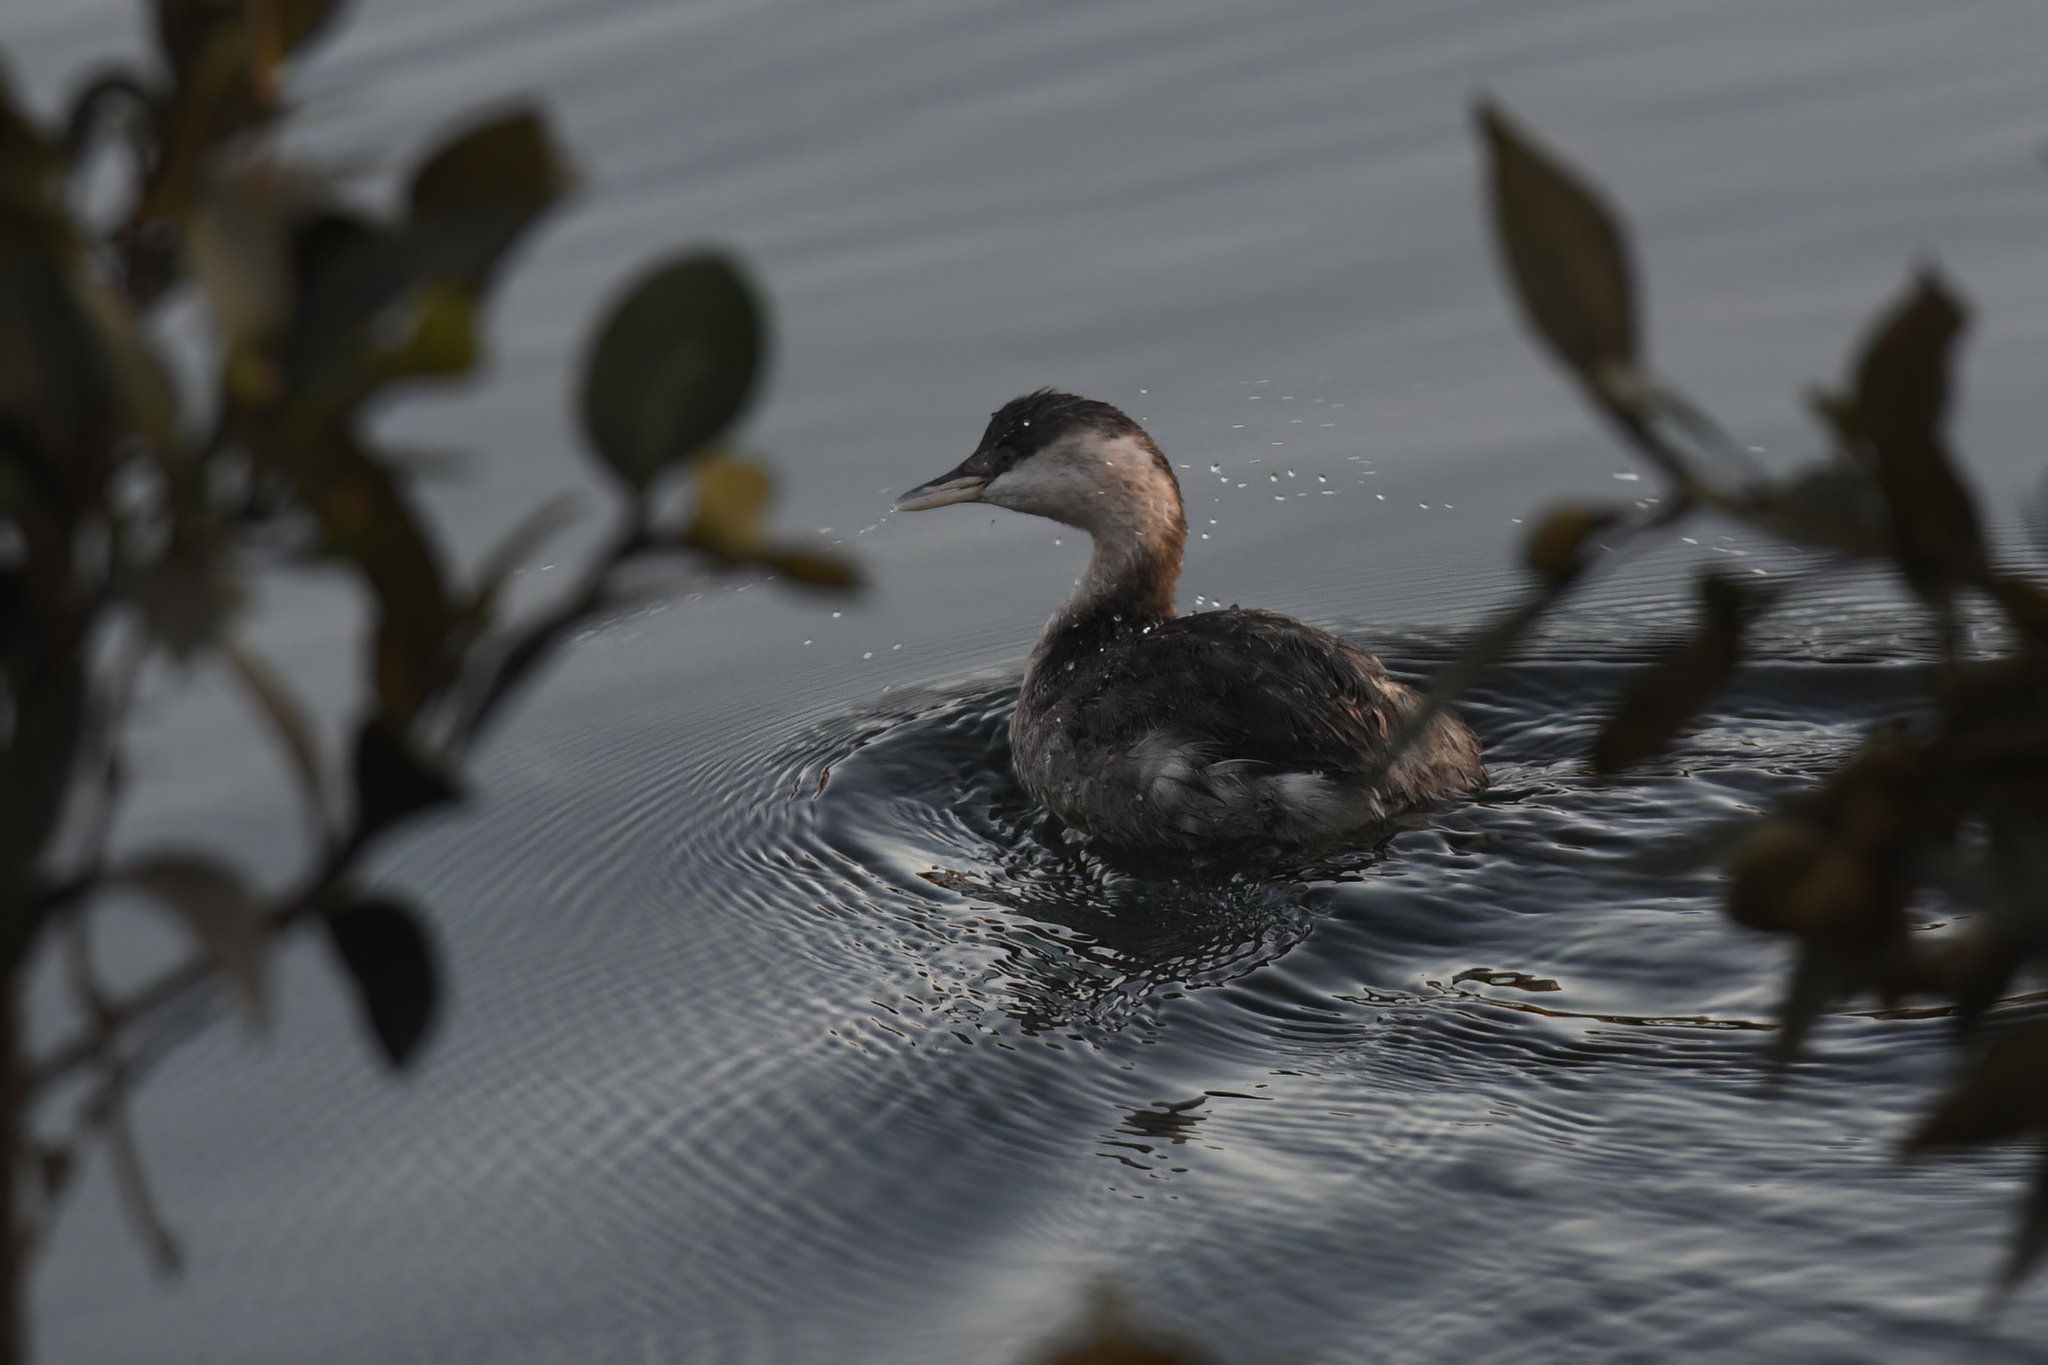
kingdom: Animalia
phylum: Chordata
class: Aves
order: Podicipediformes
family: Podicipedidae
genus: Poliocephalus
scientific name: Poliocephalus poliocephalus
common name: Hoary-headed grebe
